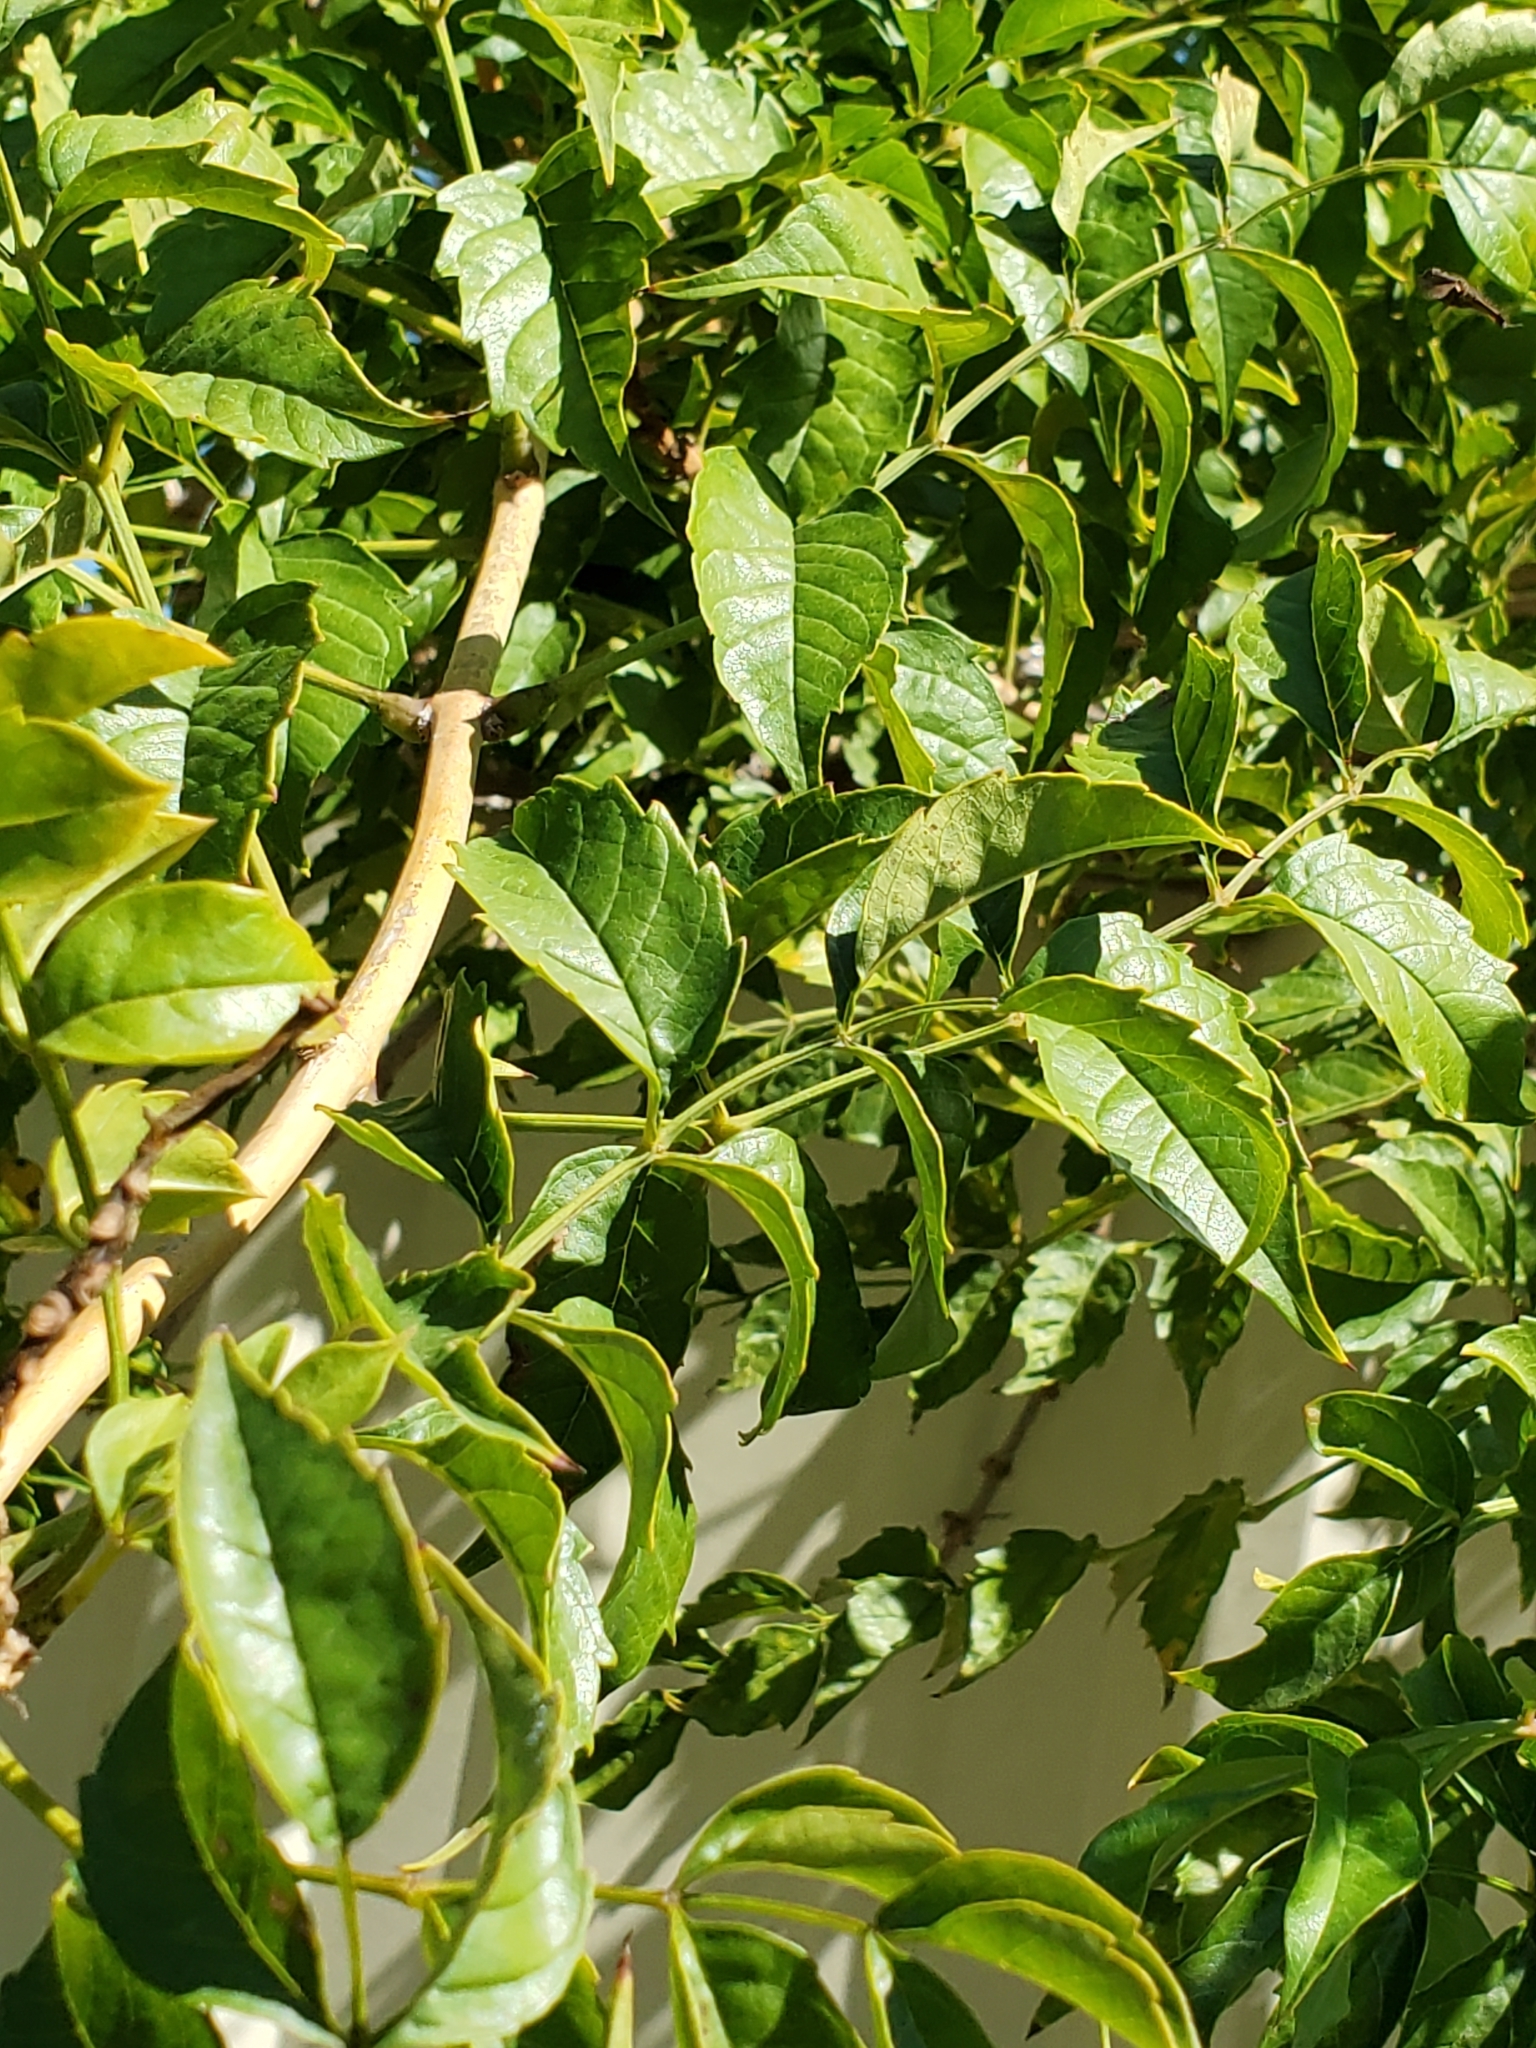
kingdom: Plantae
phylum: Tracheophyta
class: Magnoliopsida
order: Lamiales
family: Bignoniaceae
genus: Campsis
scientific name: Campsis radicans
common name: Trumpet-creeper
